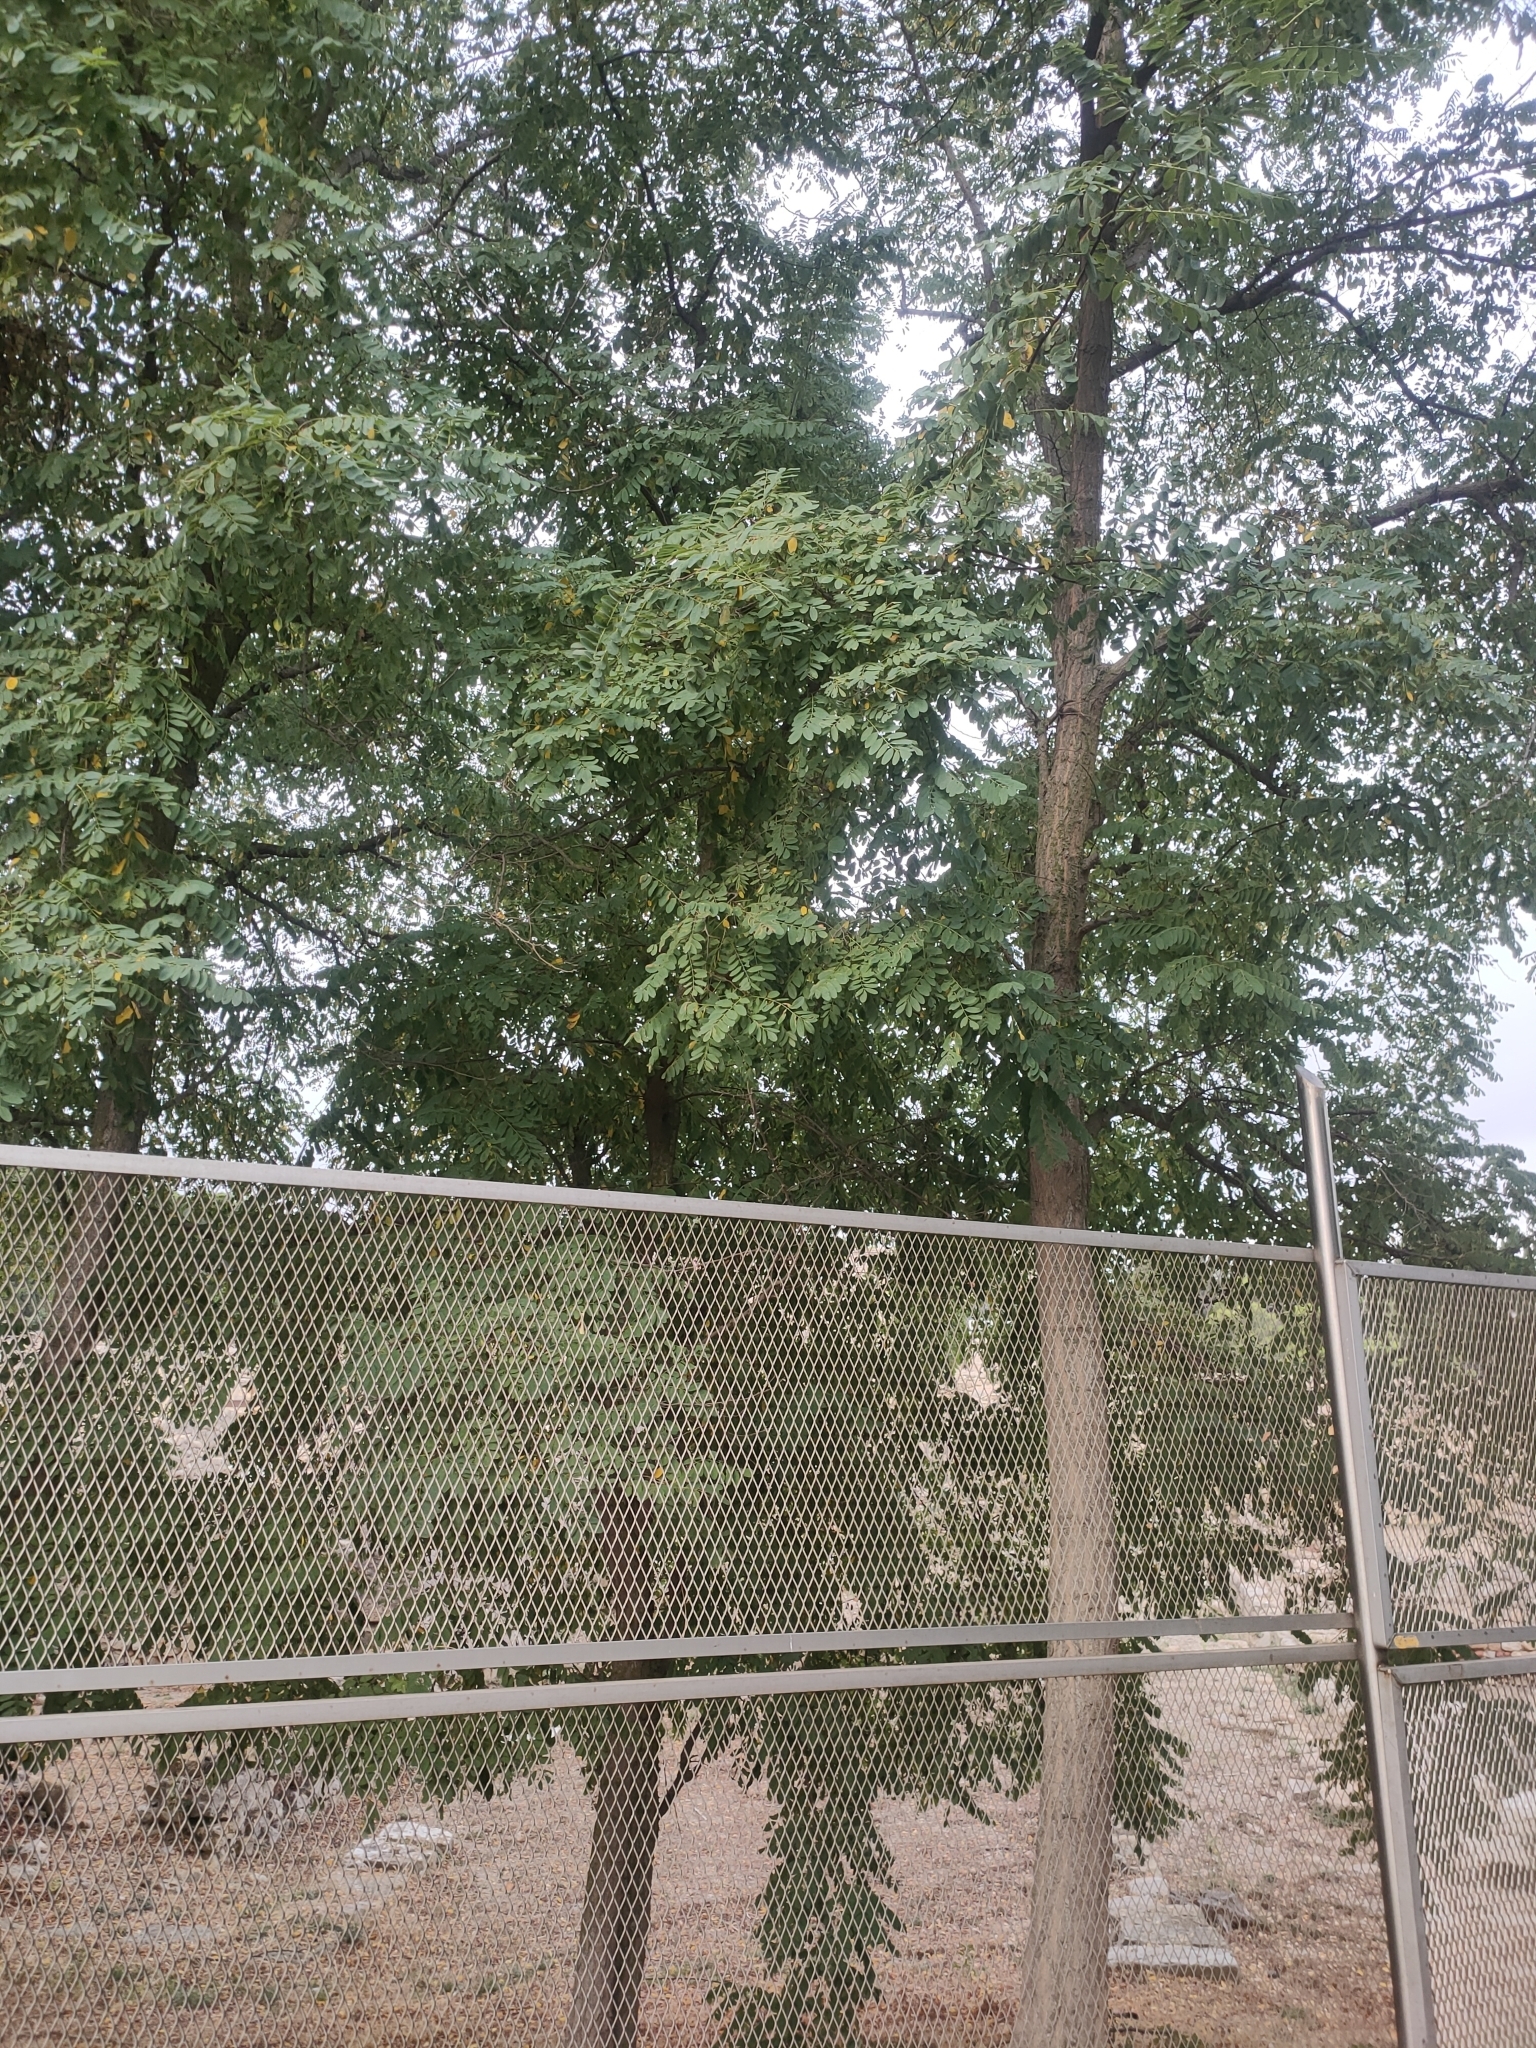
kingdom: Plantae
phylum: Tracheophyta
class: Magnoliopsida
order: Fabales
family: Fabaceae
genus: Robinia
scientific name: Robinia pseudoacacia
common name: Black locust
